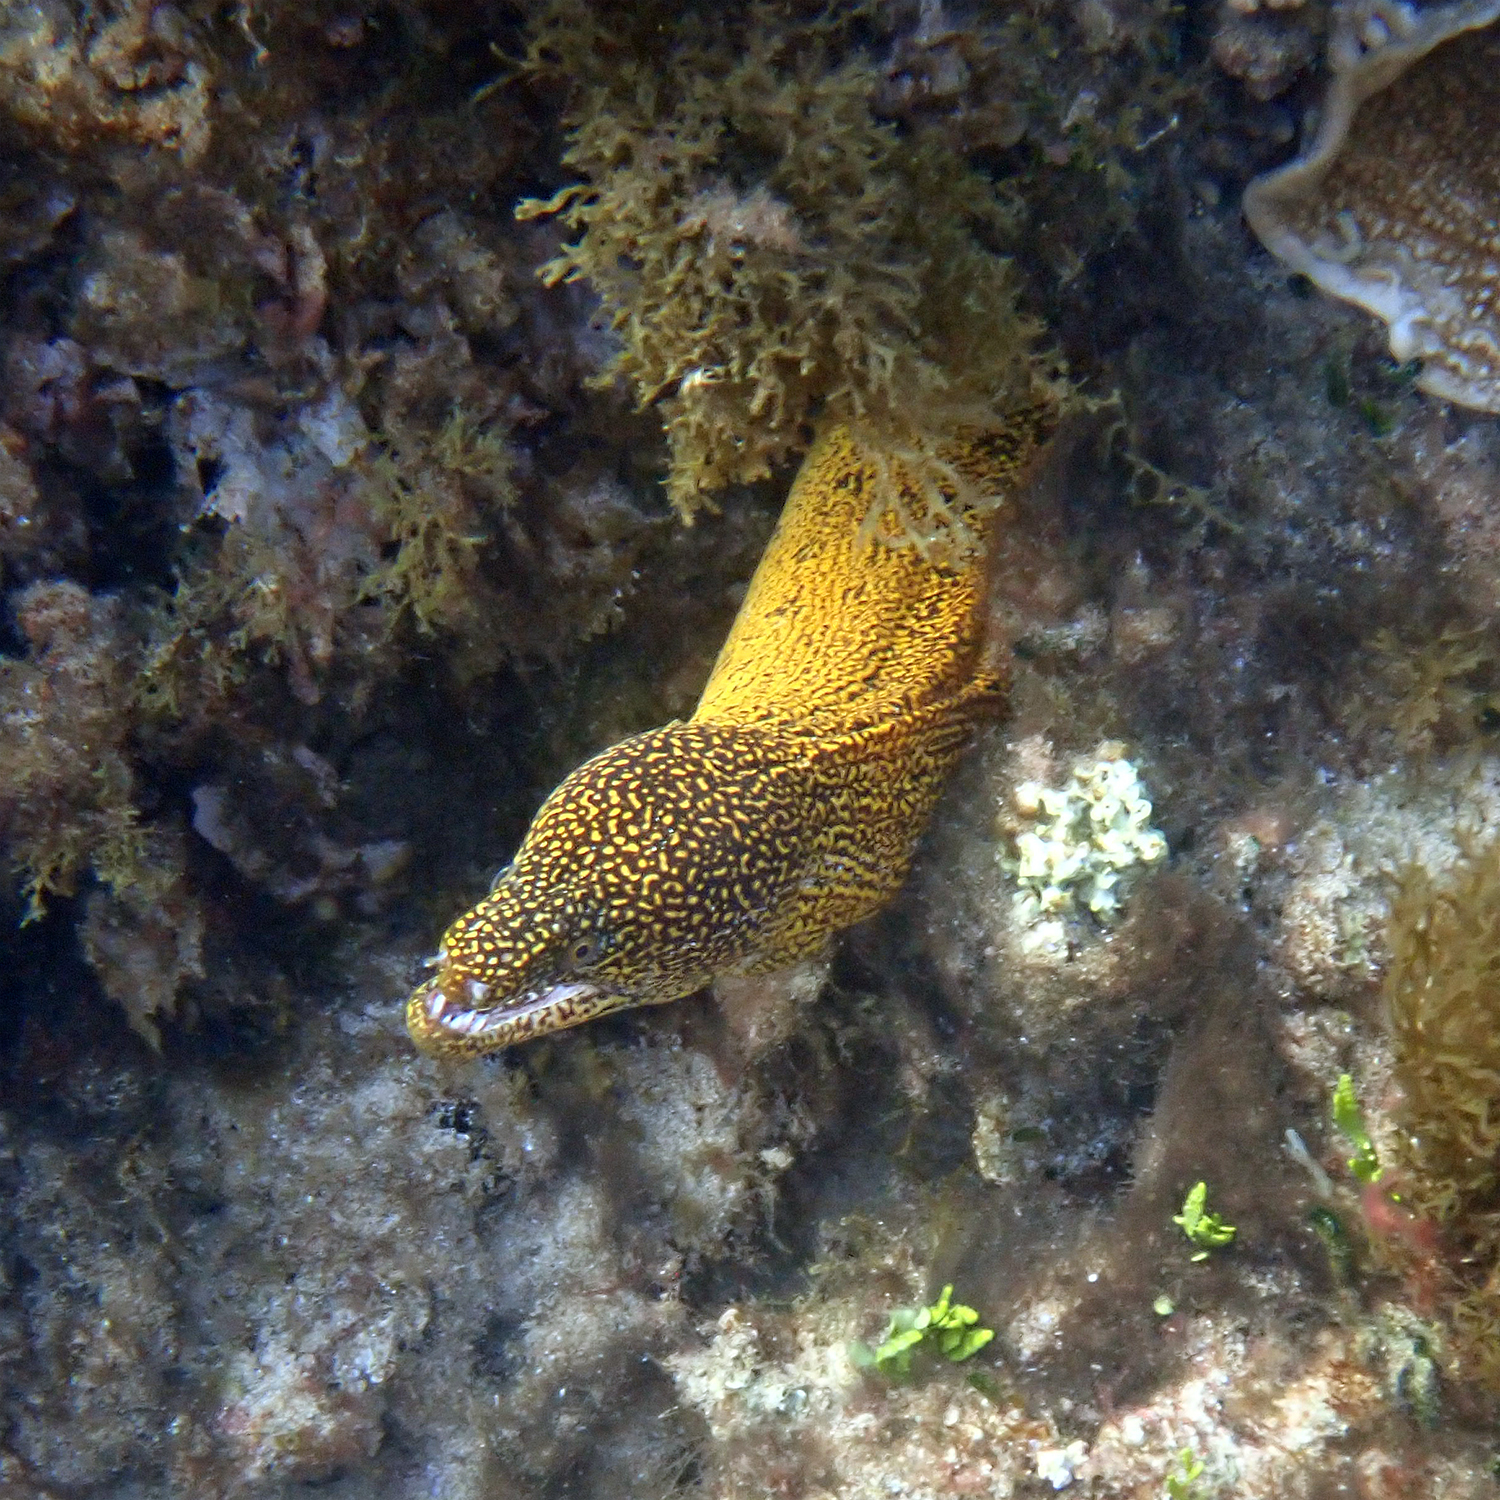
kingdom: Animalia
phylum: Chordata
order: Anguilliformes
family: Muraenidae
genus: Gymnothorax
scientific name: Gymnothorax eurostus
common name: Stout moray
